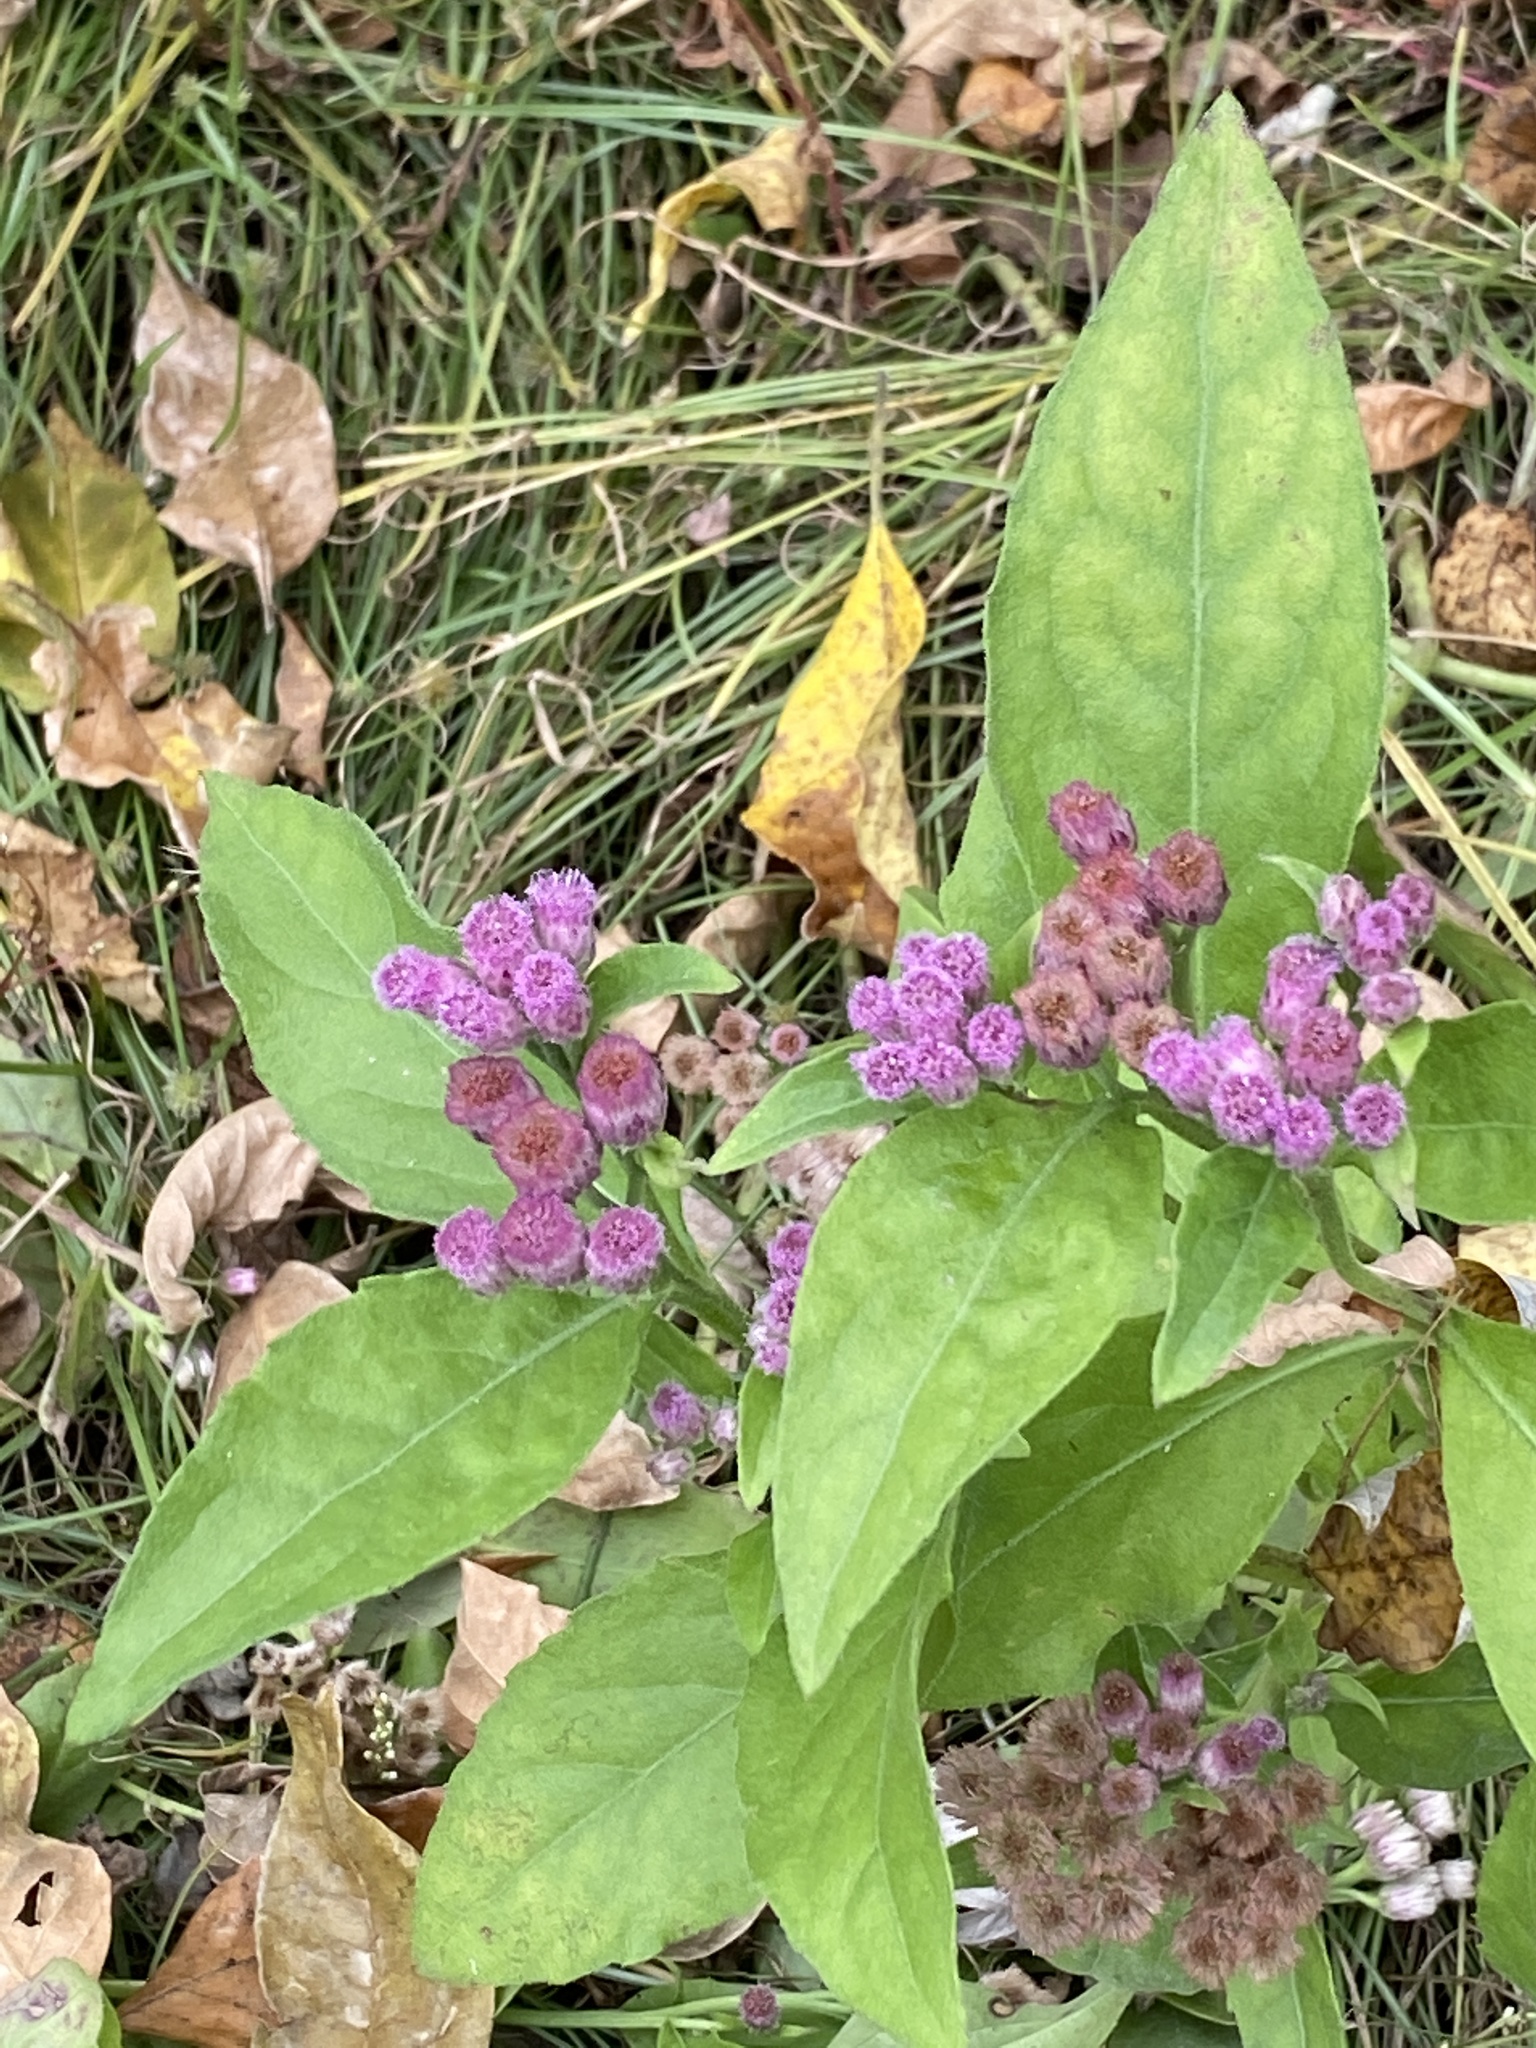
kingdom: Plantae
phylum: Tracheophyta
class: Magnoliopsida
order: Asterales
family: Asteraceae
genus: Pluchea
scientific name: Pluchea odorata
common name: Saltmarsh fleabane
